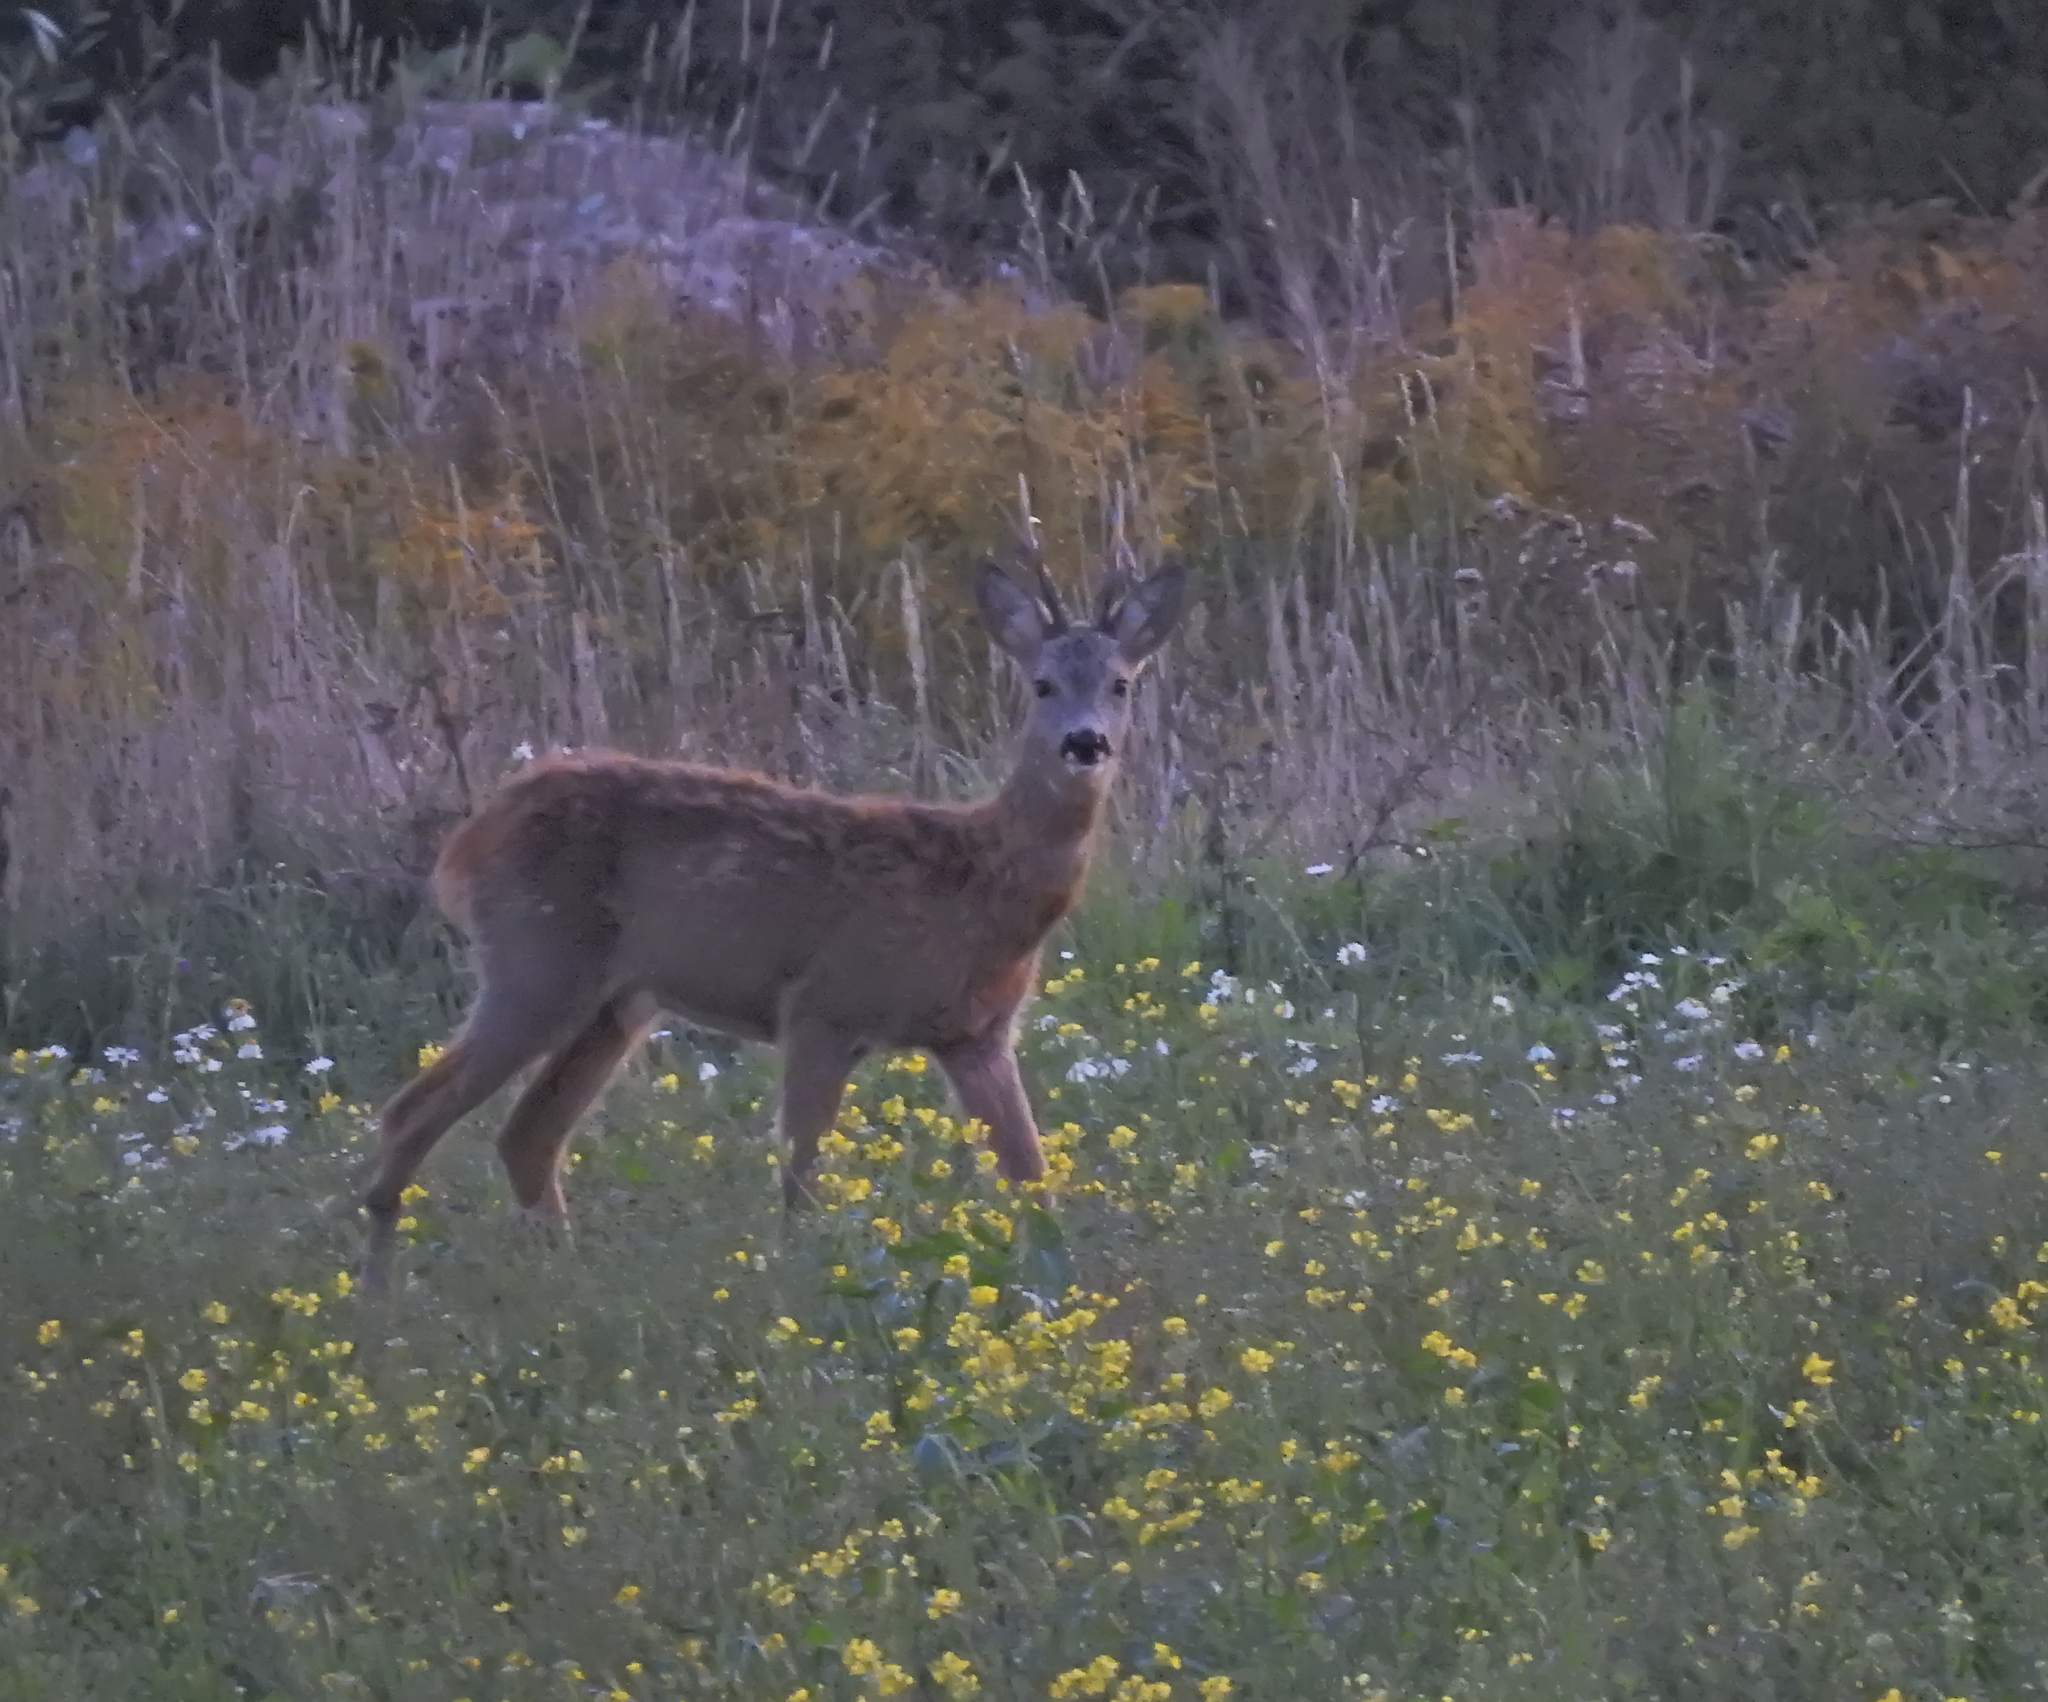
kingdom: Animalia
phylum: Chordata
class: Mammalia
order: Artiodactyla
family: Cervidae
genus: Capreolus
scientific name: Capreolus capreolus
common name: Western roe deer
